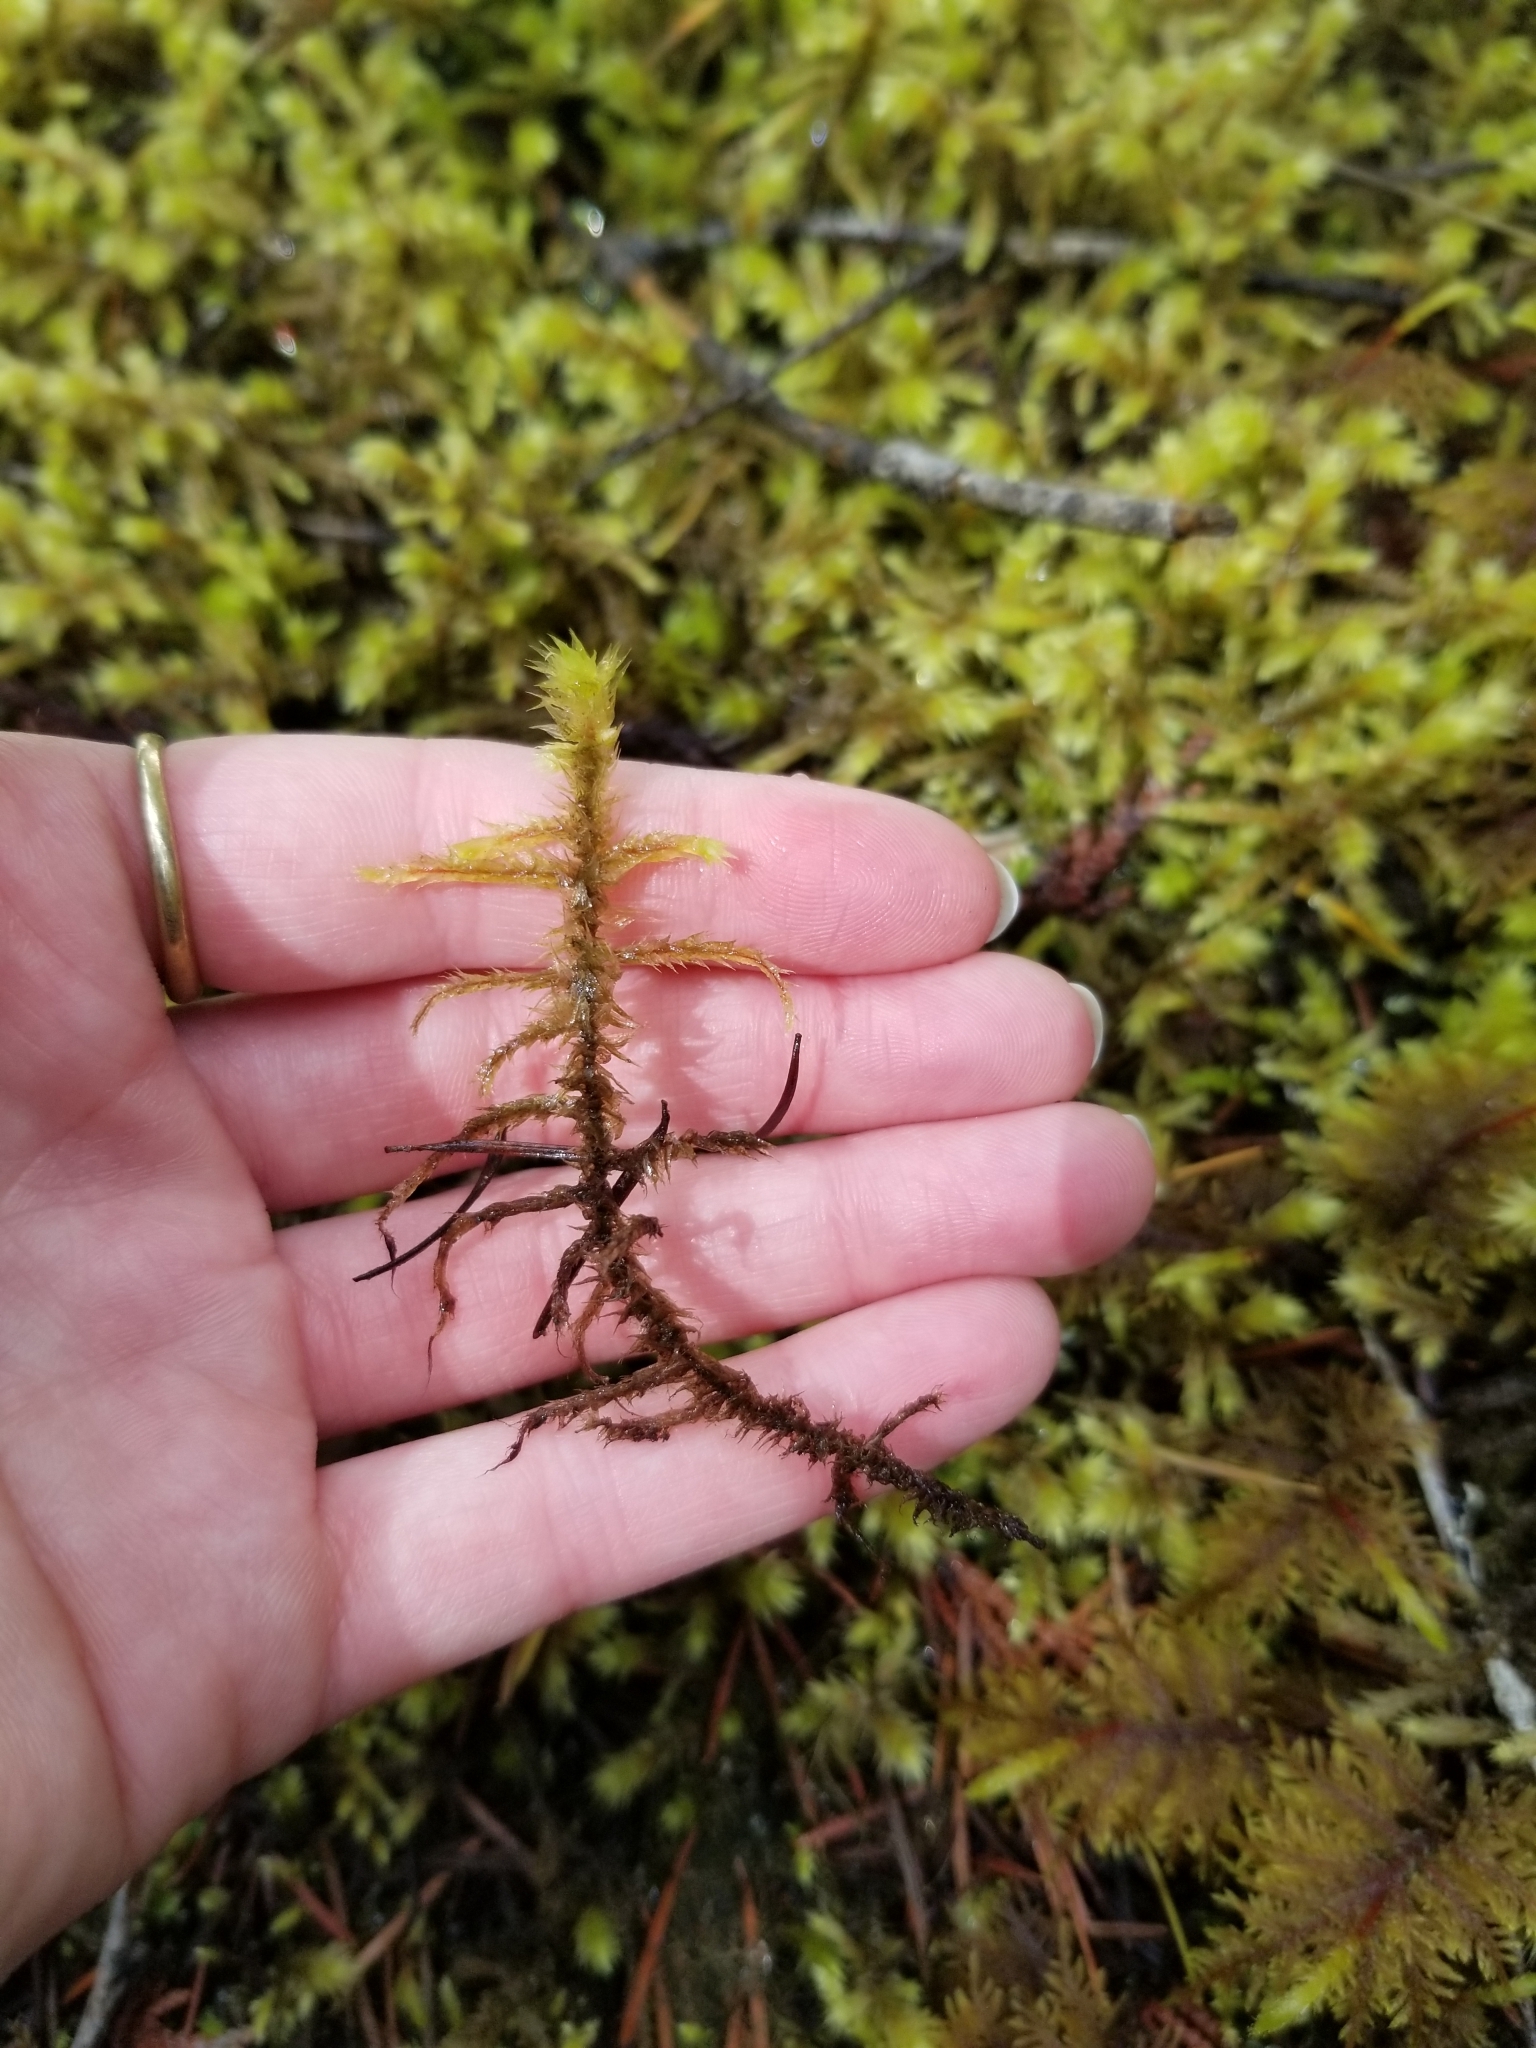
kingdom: Plantae
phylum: Bryophyta
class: Bryopsida
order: Hypnales
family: Hylocomiaceae
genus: Hylocomiadelphus
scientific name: Hylocomiadelphus triquetrus
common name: Rough goose neck moss
